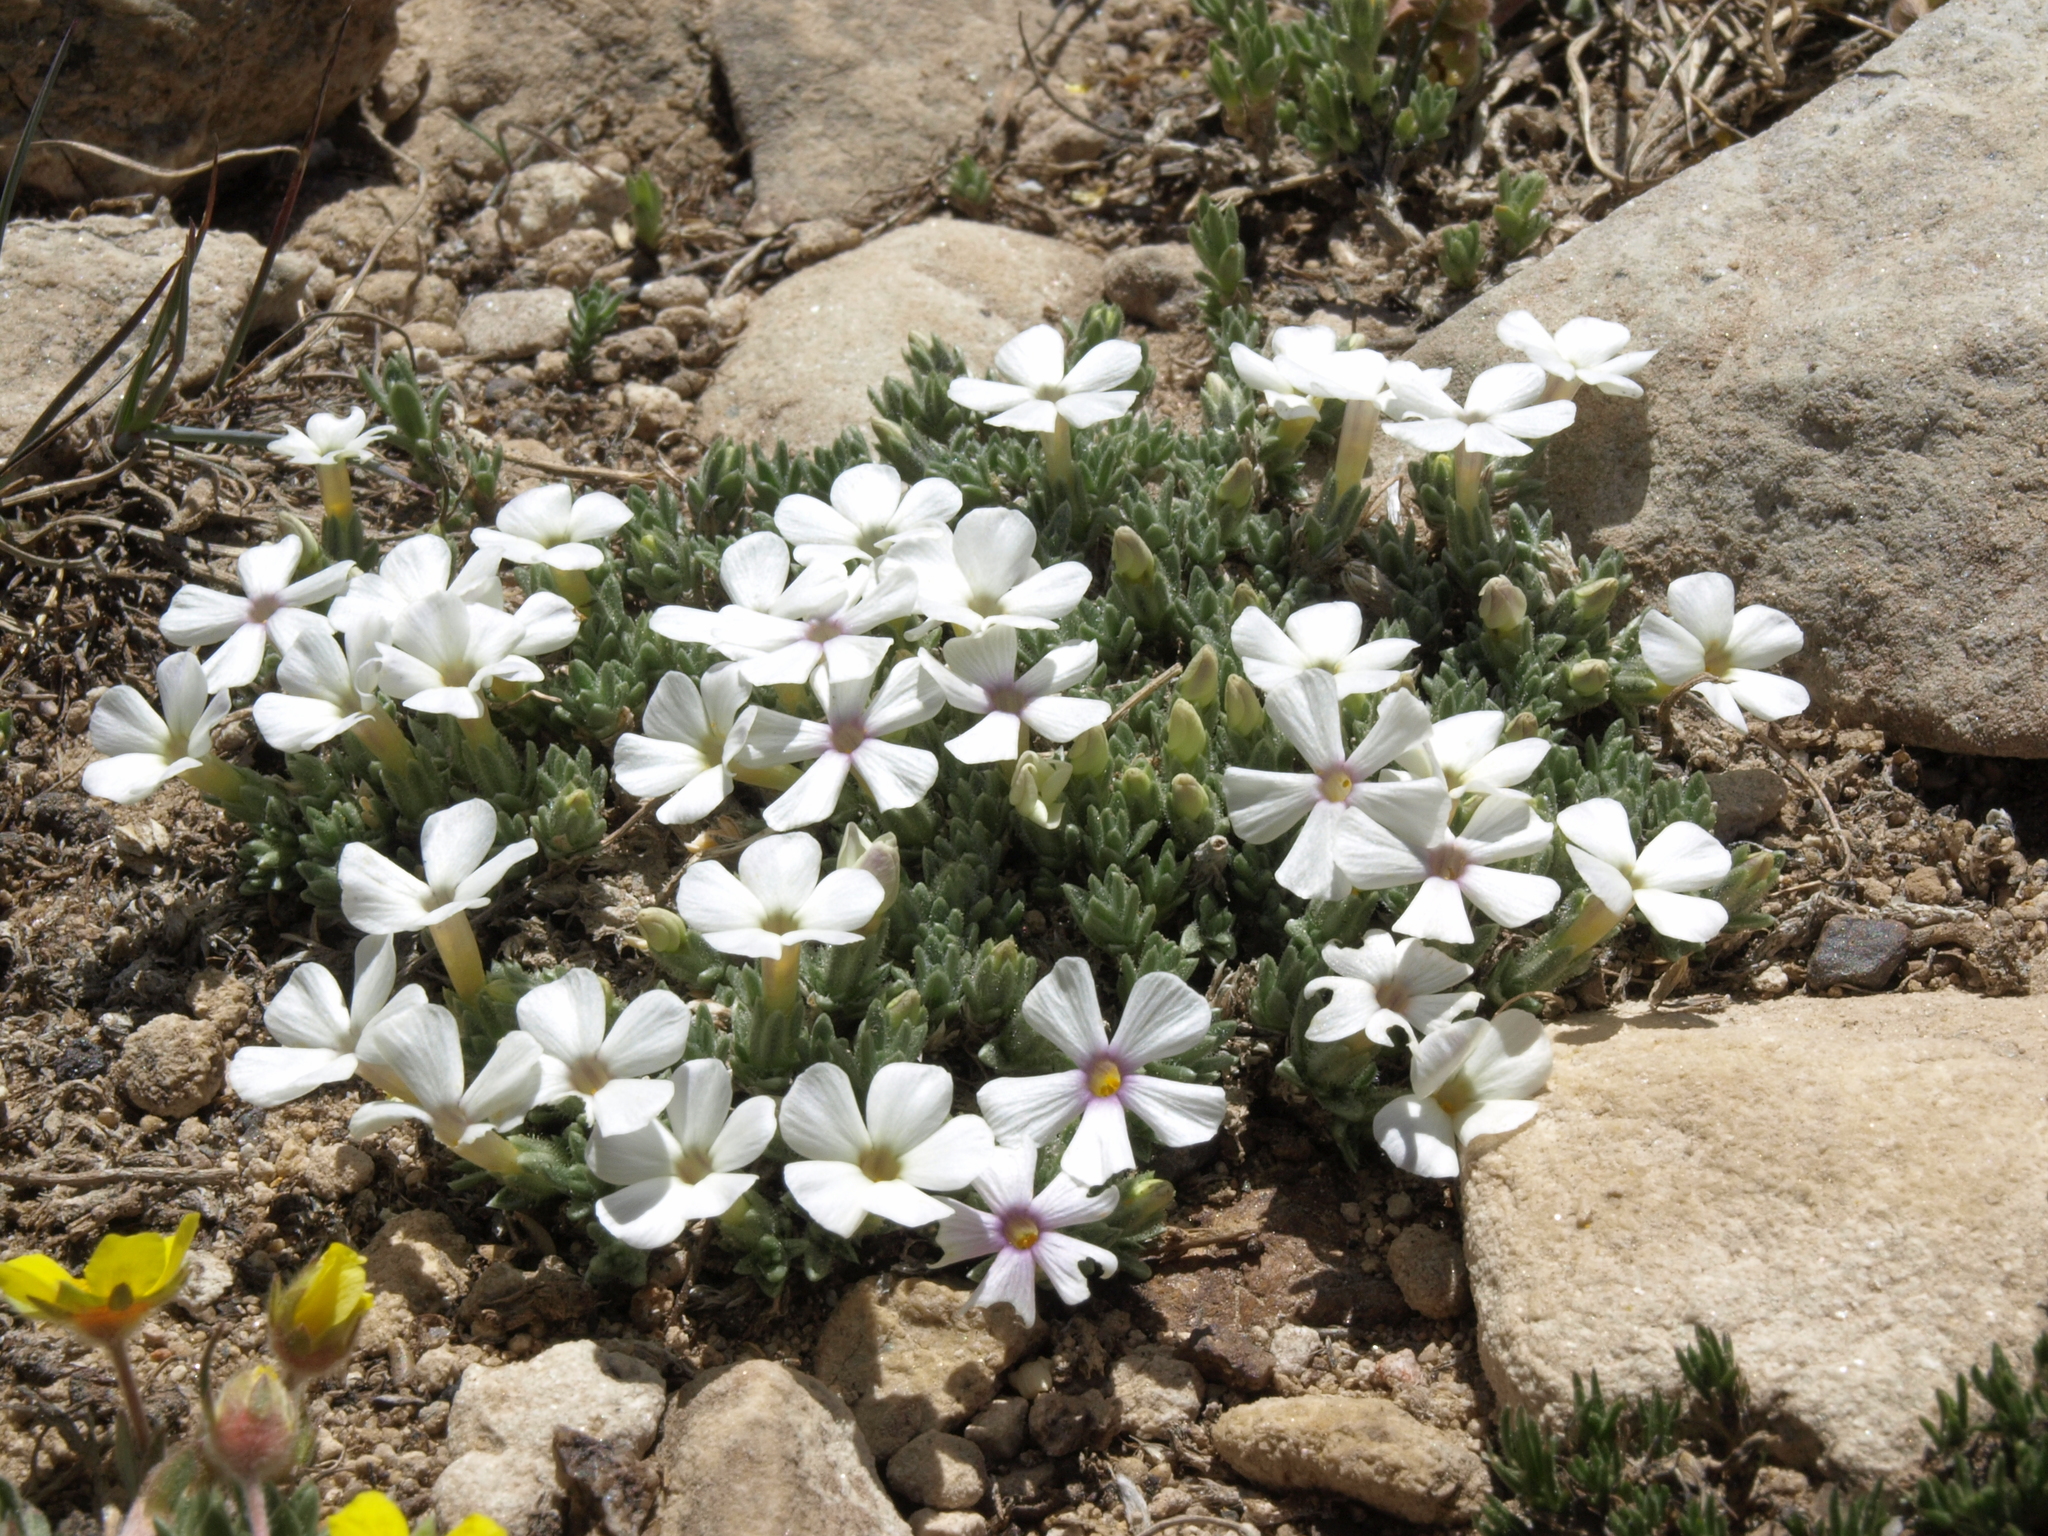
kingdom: Plantae
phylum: Tracheophyta
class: Magnoliopsida
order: Ericales
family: Polemoniaceae
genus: Phlox
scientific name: Phlox condensata
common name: Compact phlox
